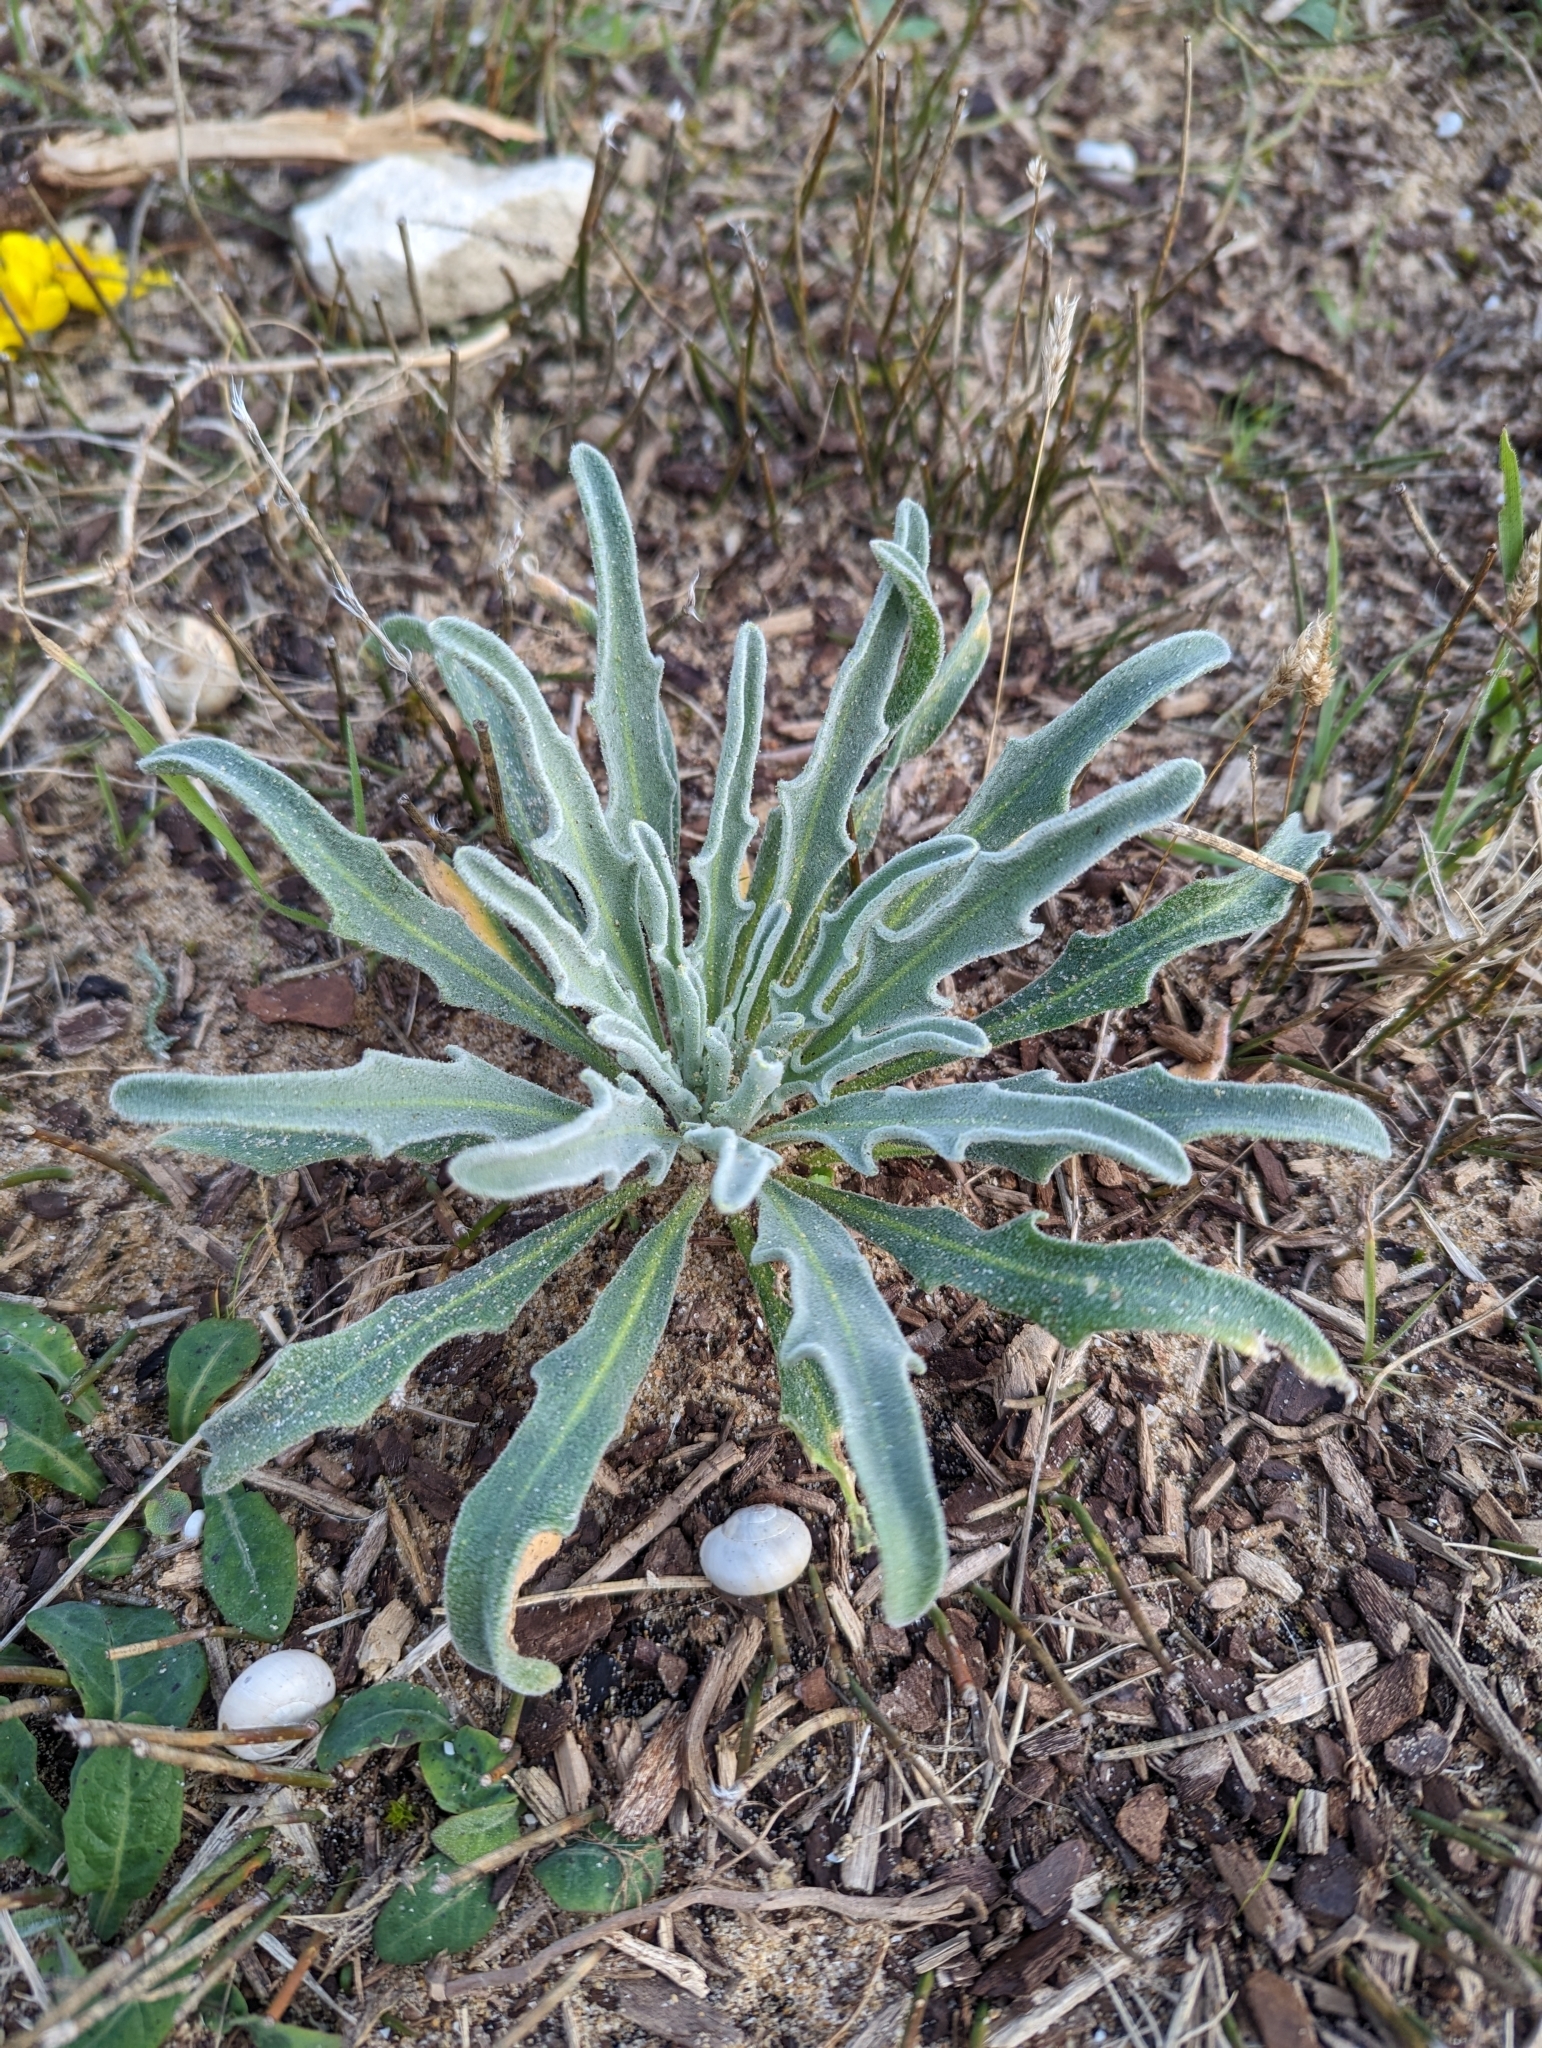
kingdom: Plantae
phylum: Tracheophyta
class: Magnoliopsida
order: Brassicales
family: Brassicaceae
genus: Matthiola
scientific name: Matthiola sinuata
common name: Sea stock
